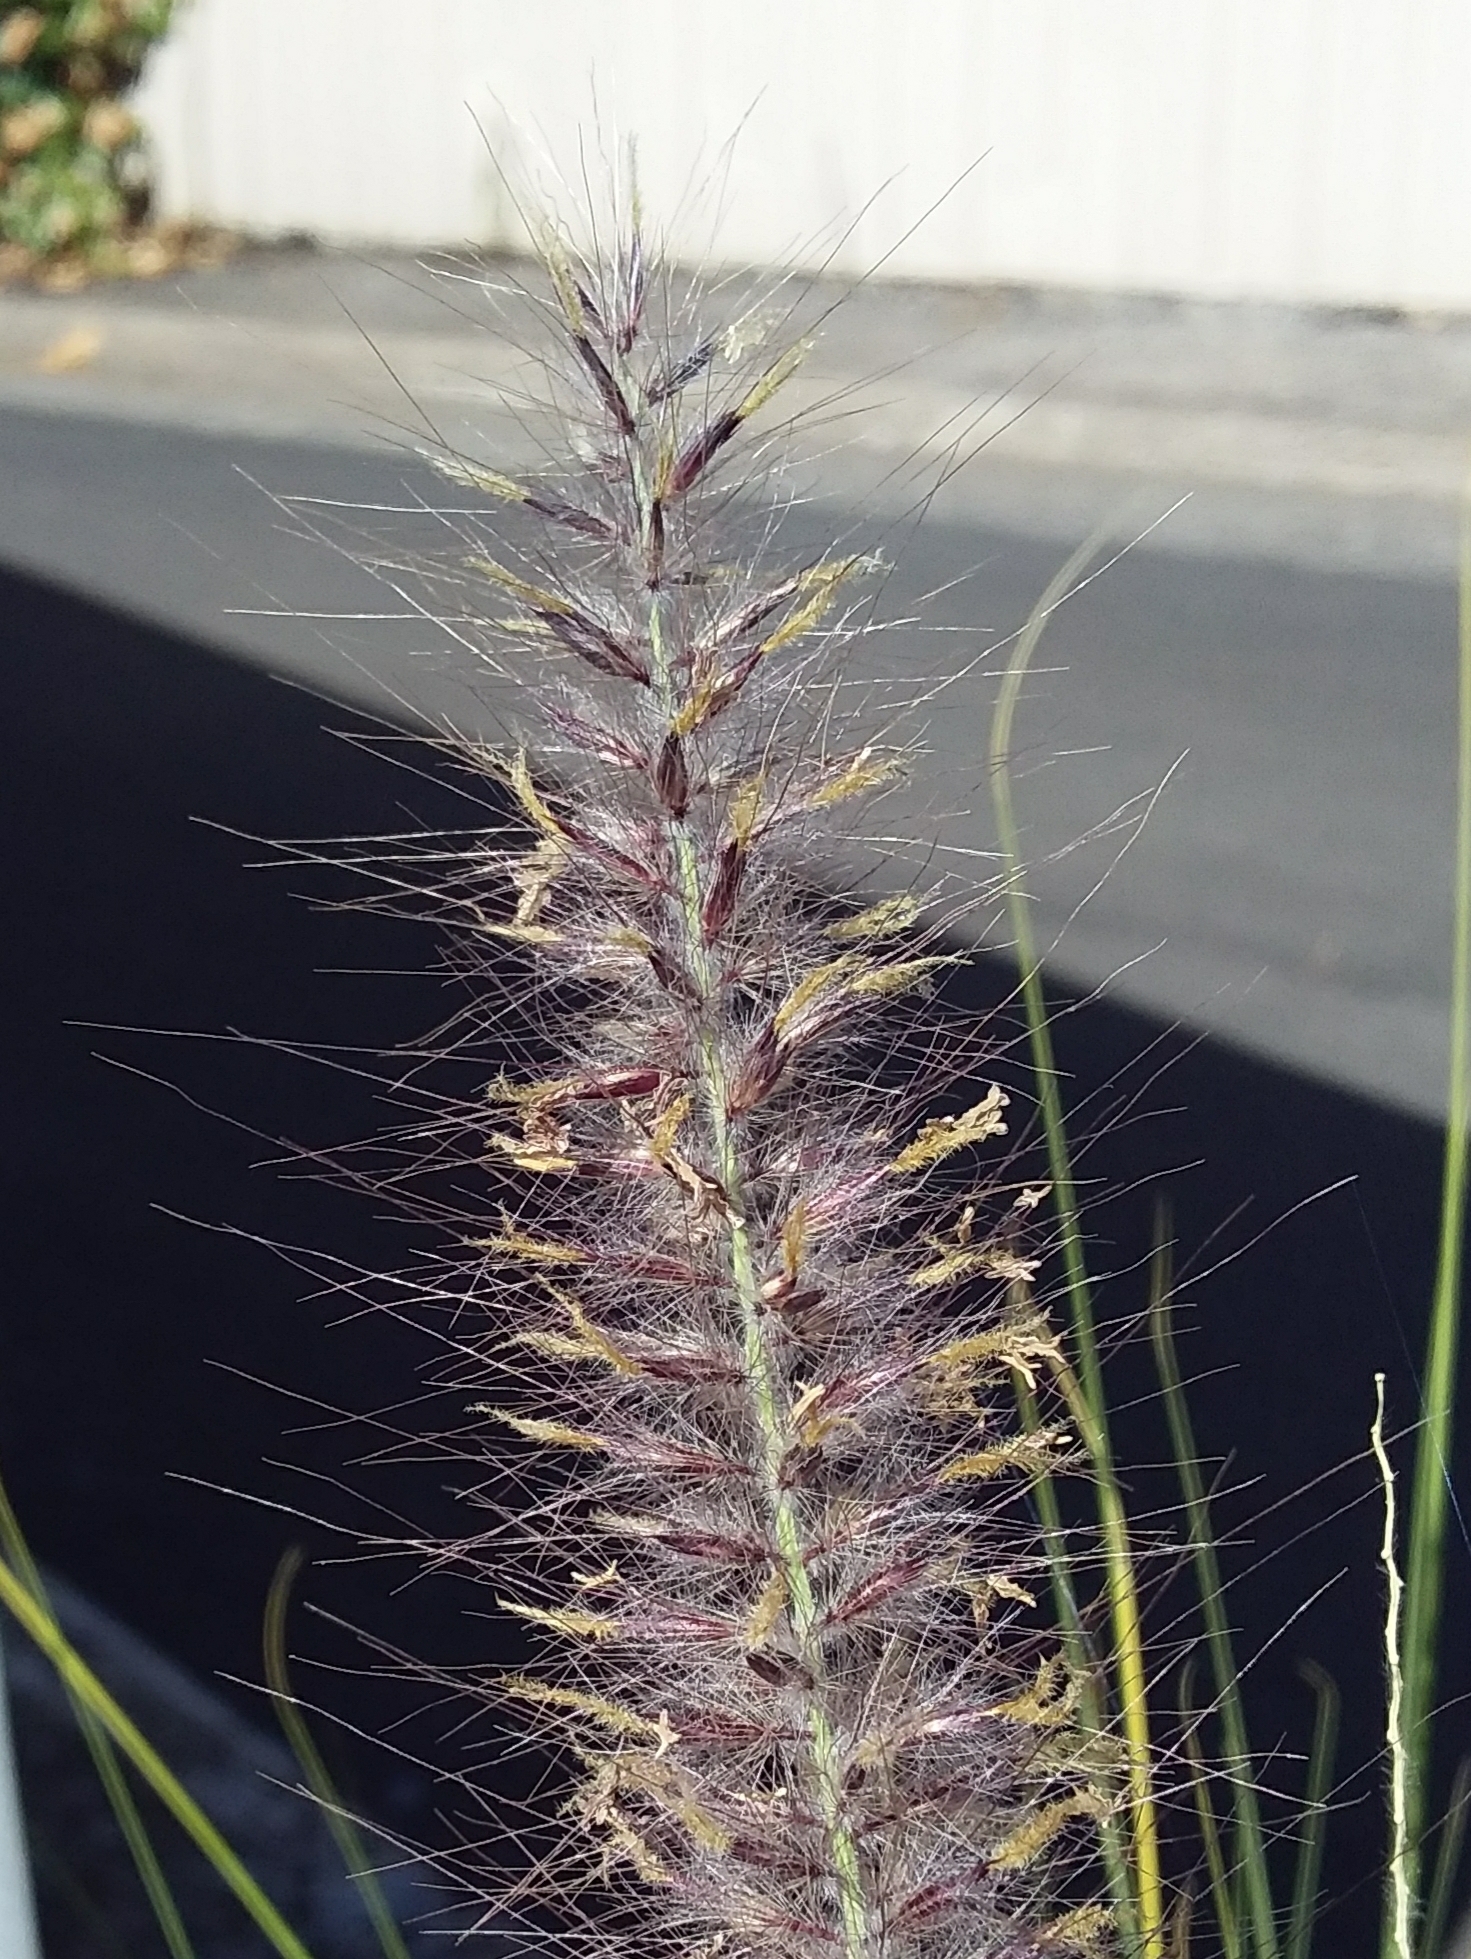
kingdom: Plantae
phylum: Tracheophyta
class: Liliopsida
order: Poales
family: Poaceae
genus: Cenchrus
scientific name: Cenchrus setaceus
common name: Crimson fountaingrass
